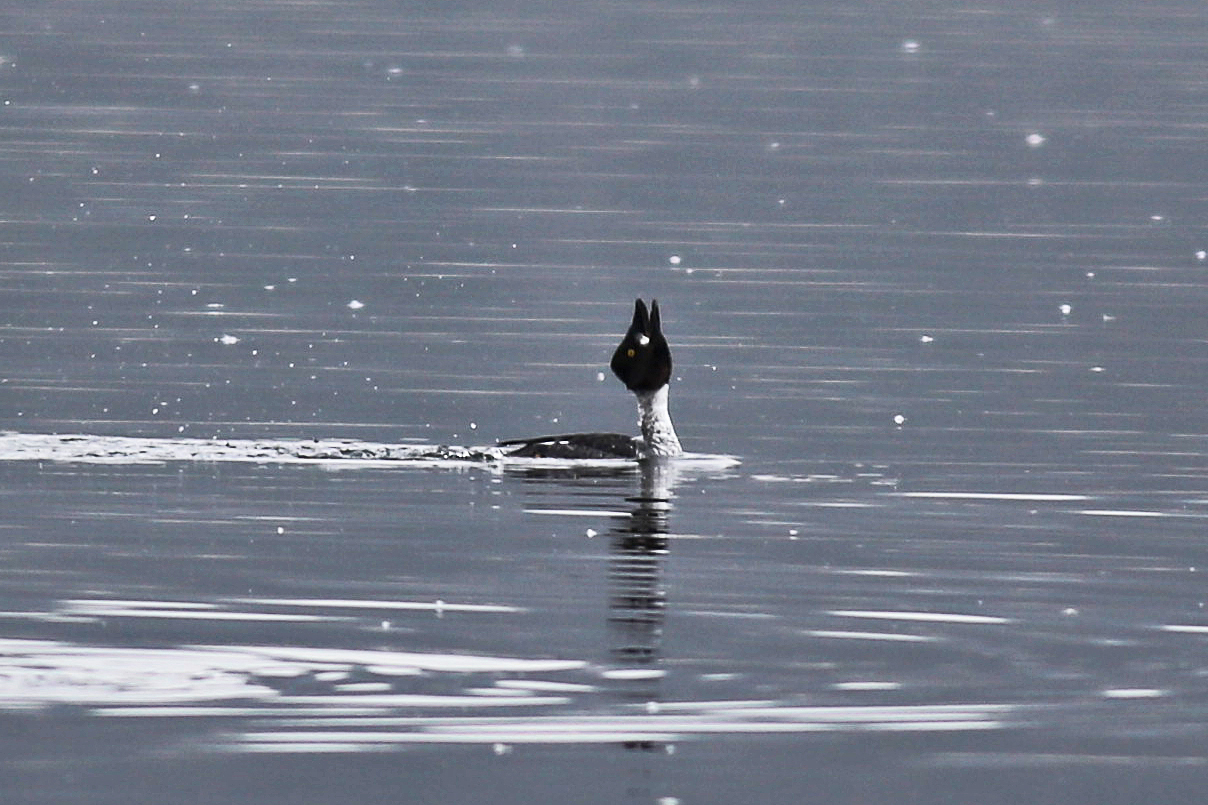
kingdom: Animalia
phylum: Chordata
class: Aves
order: Anseriformes
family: Anatidae
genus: Bucephala
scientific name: Bucephala clangula
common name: Common goldeneye
